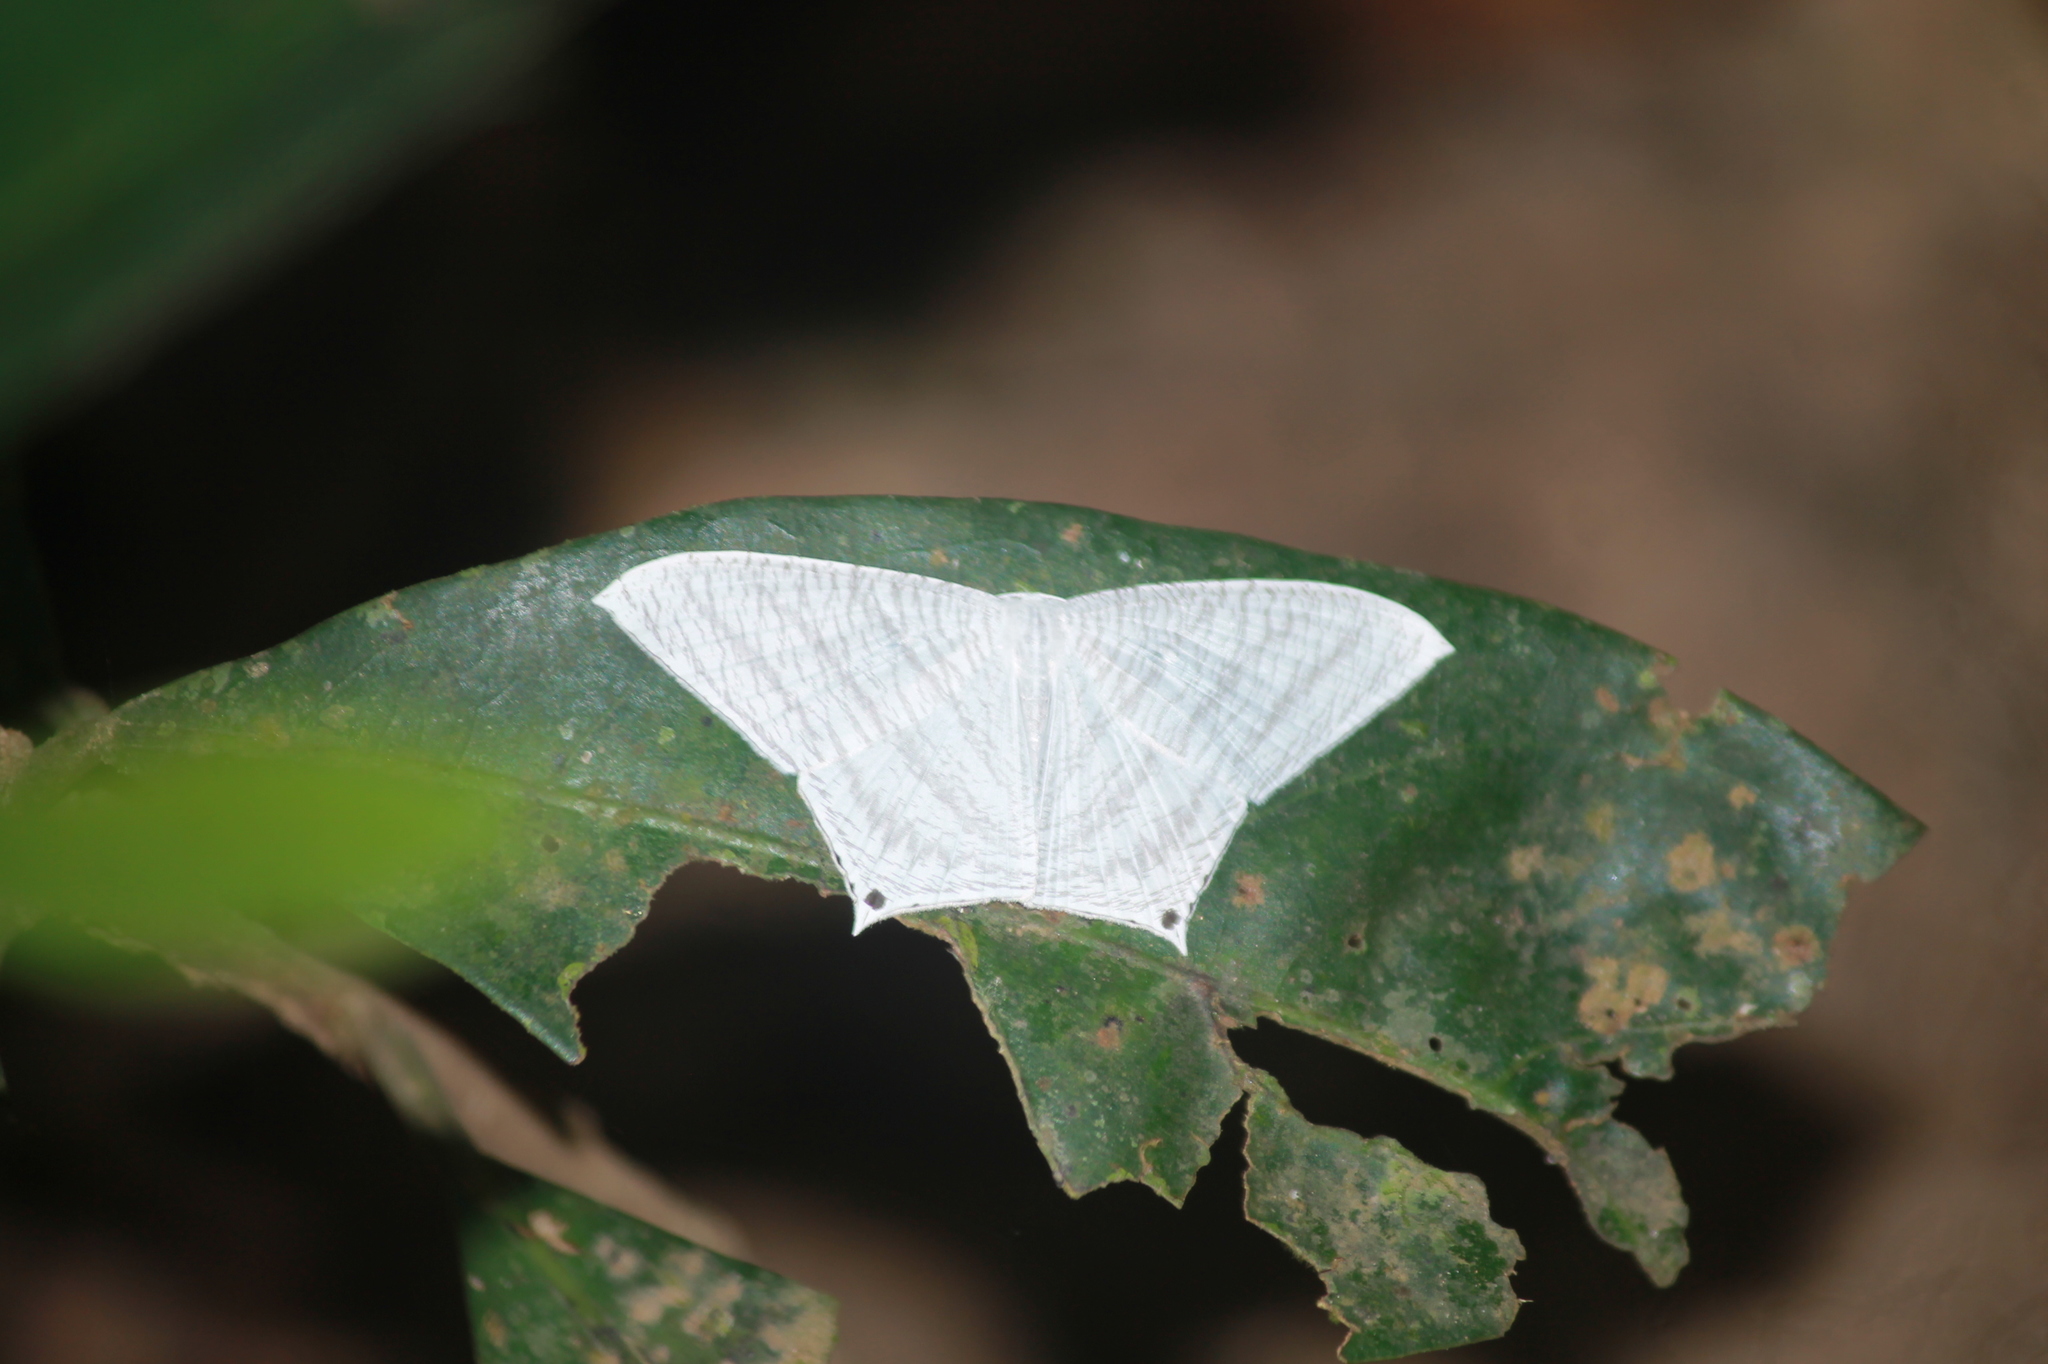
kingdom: Animalia
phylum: Arthropoda
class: Insecta
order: Lepidoptera
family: Uraniidae
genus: Micronia
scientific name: Micronia aculeata
